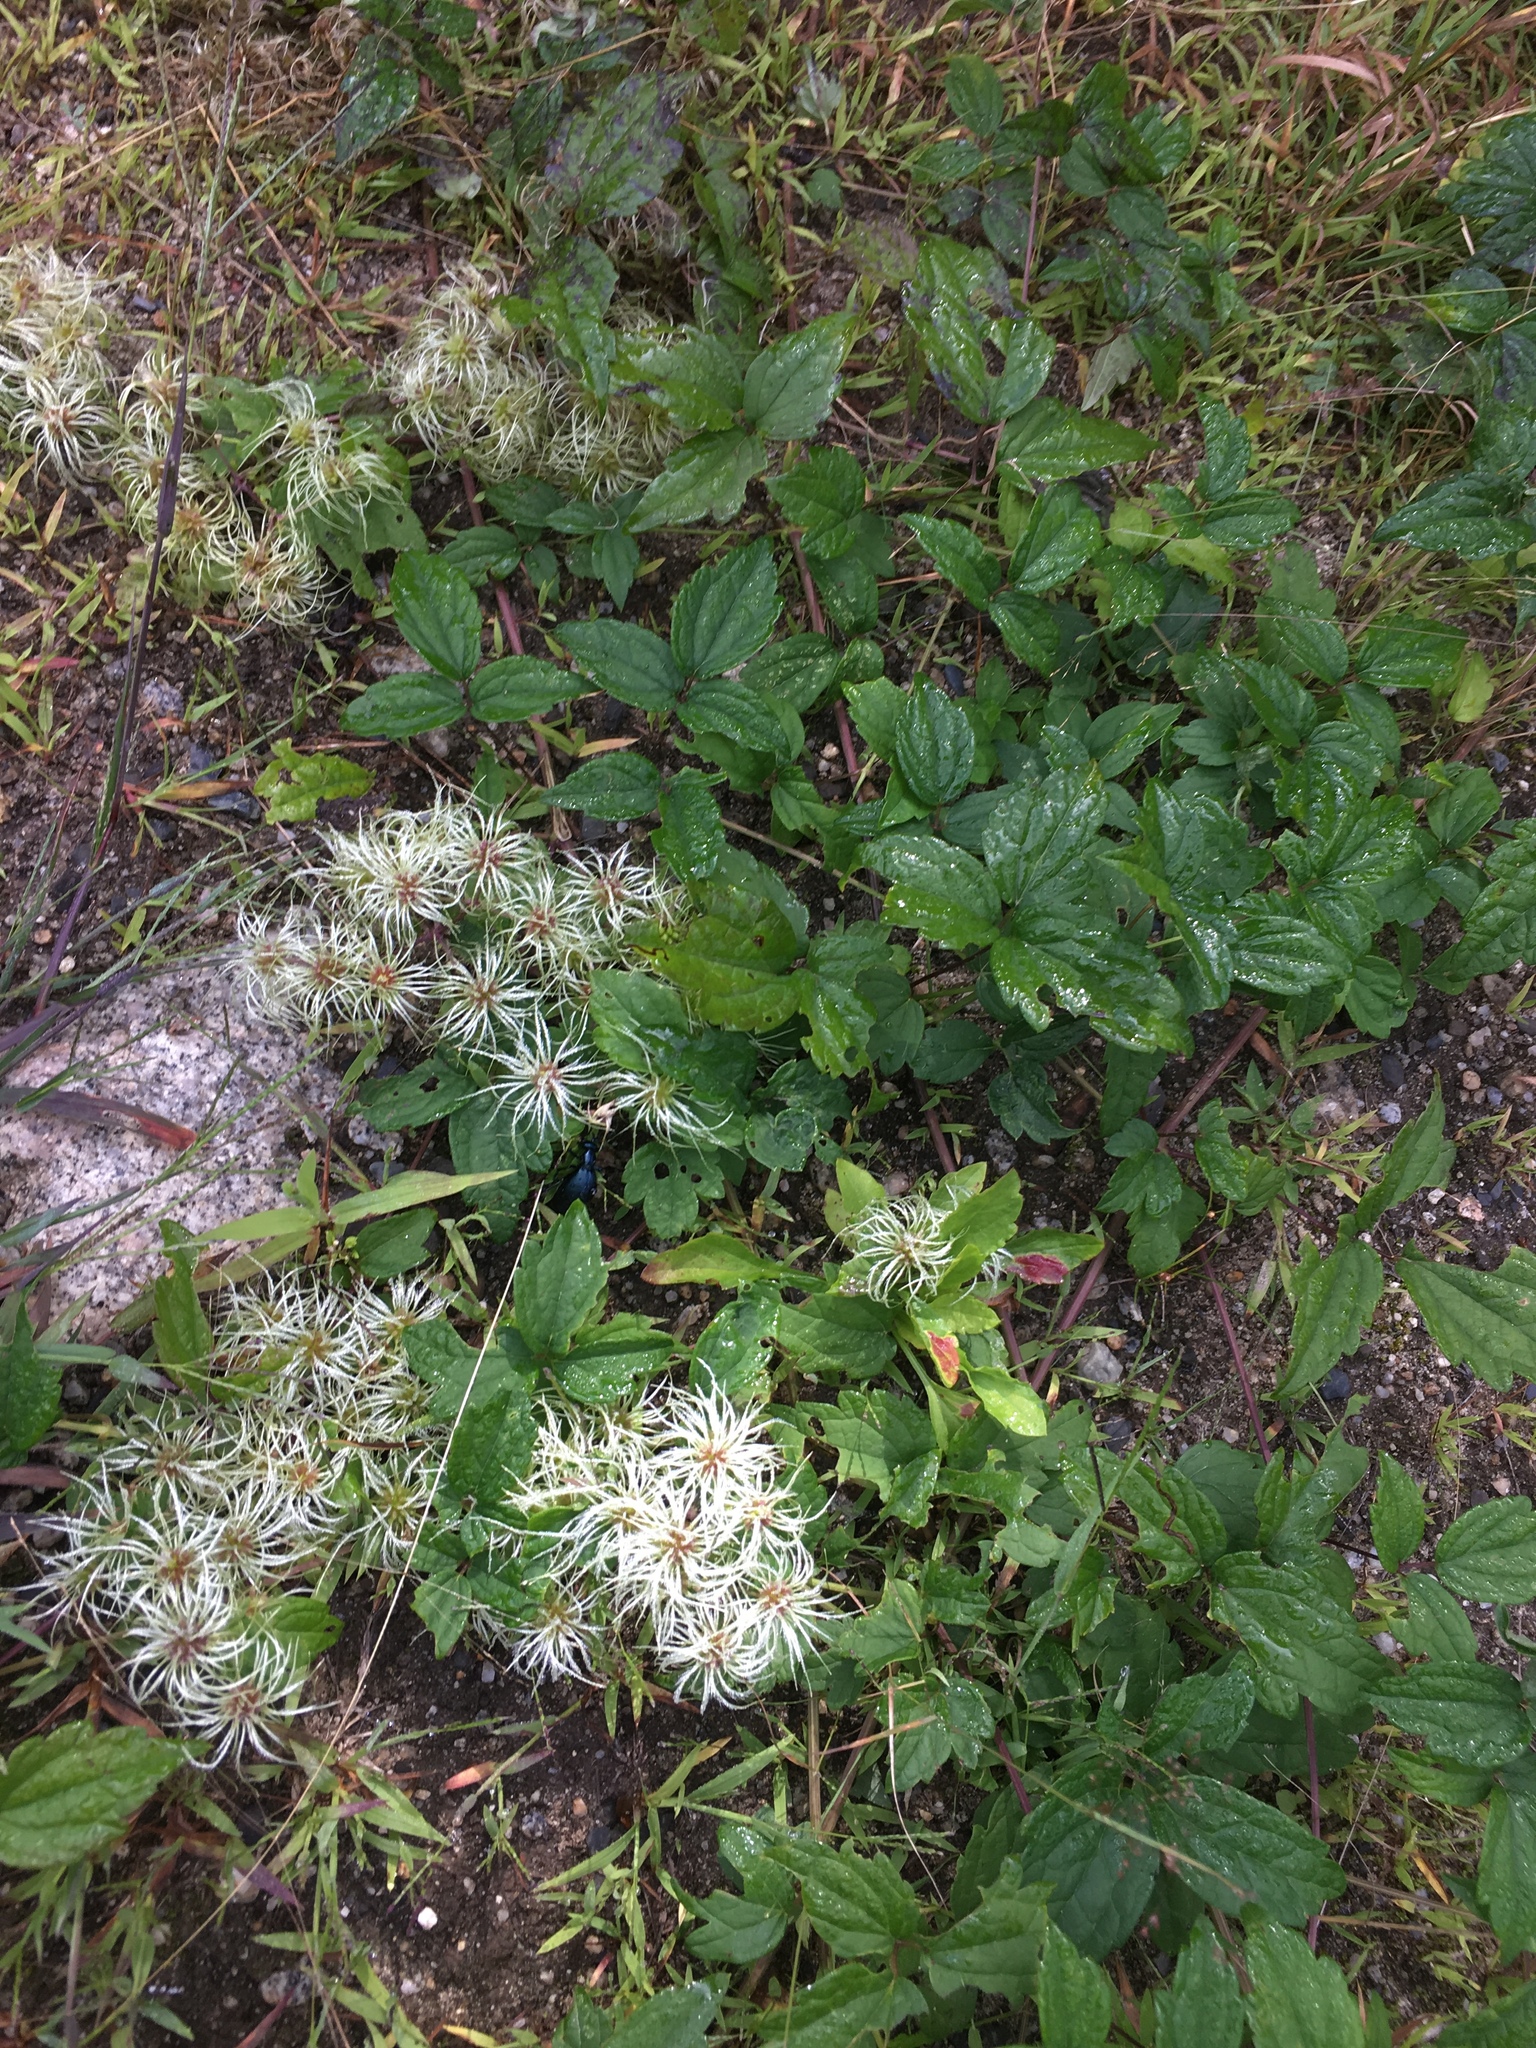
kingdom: Plantae
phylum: Tracheophyta
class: Magnoliopsida
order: Ranunculales
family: Ranunculaceae
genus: Clematis
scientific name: Clematis virginiana
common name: Virgin's-bower
